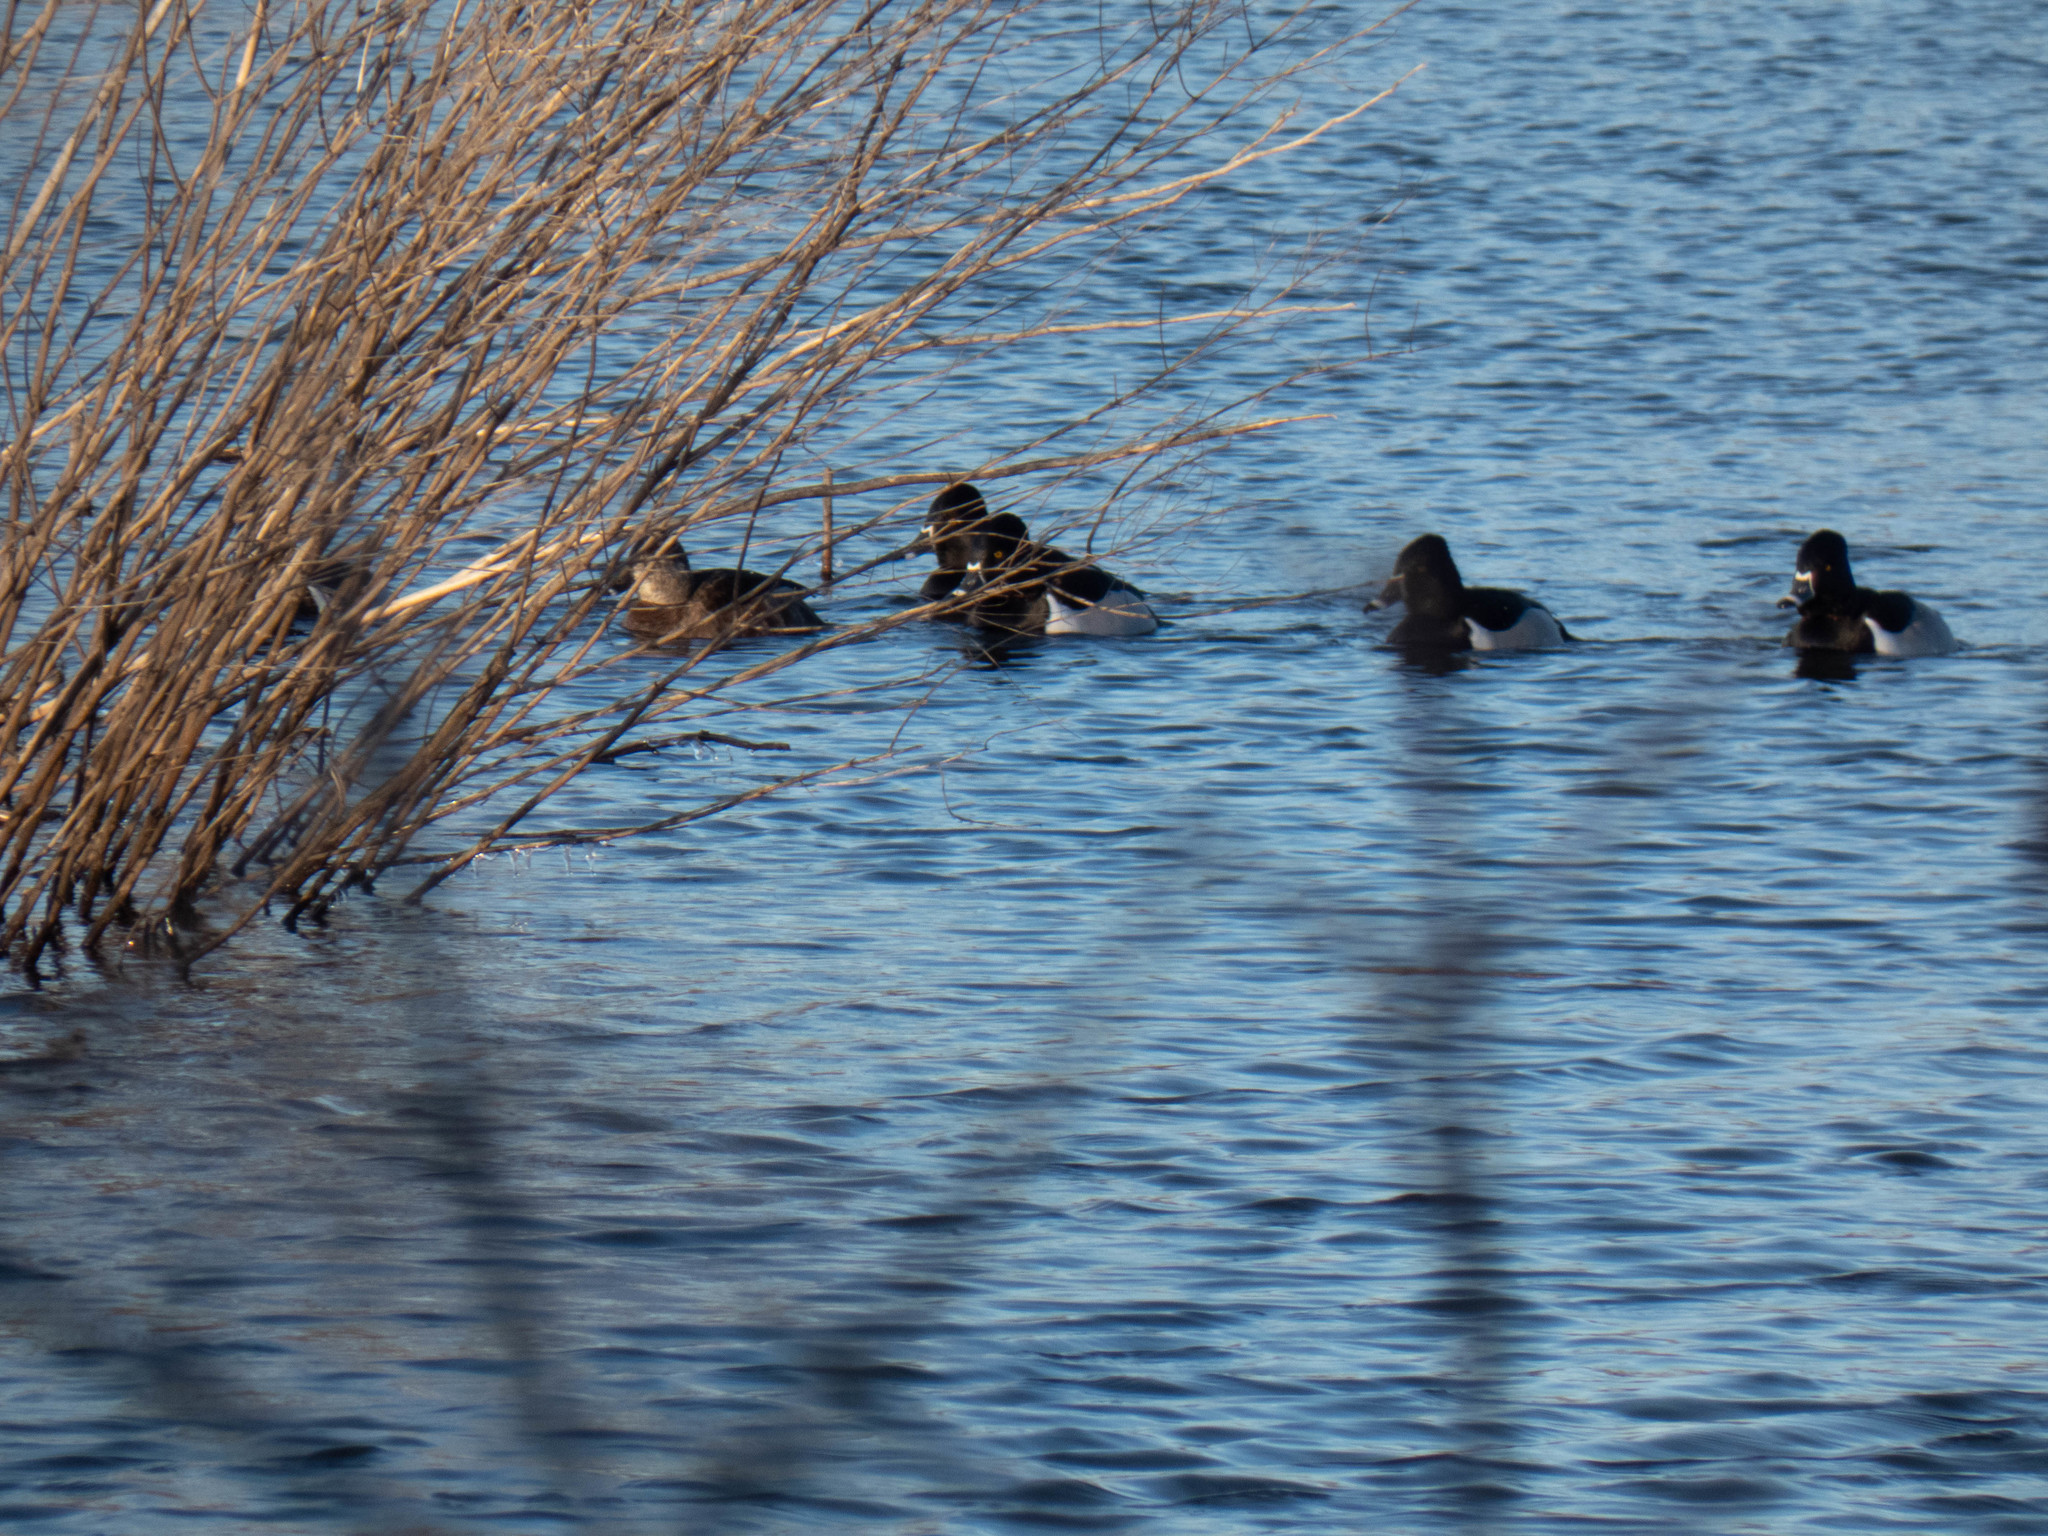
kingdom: Animalia
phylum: Chordata
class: Aves
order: Anseriformes
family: Anatidae
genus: Aythya
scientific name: Aythya collaris
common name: Ring-necked duck
